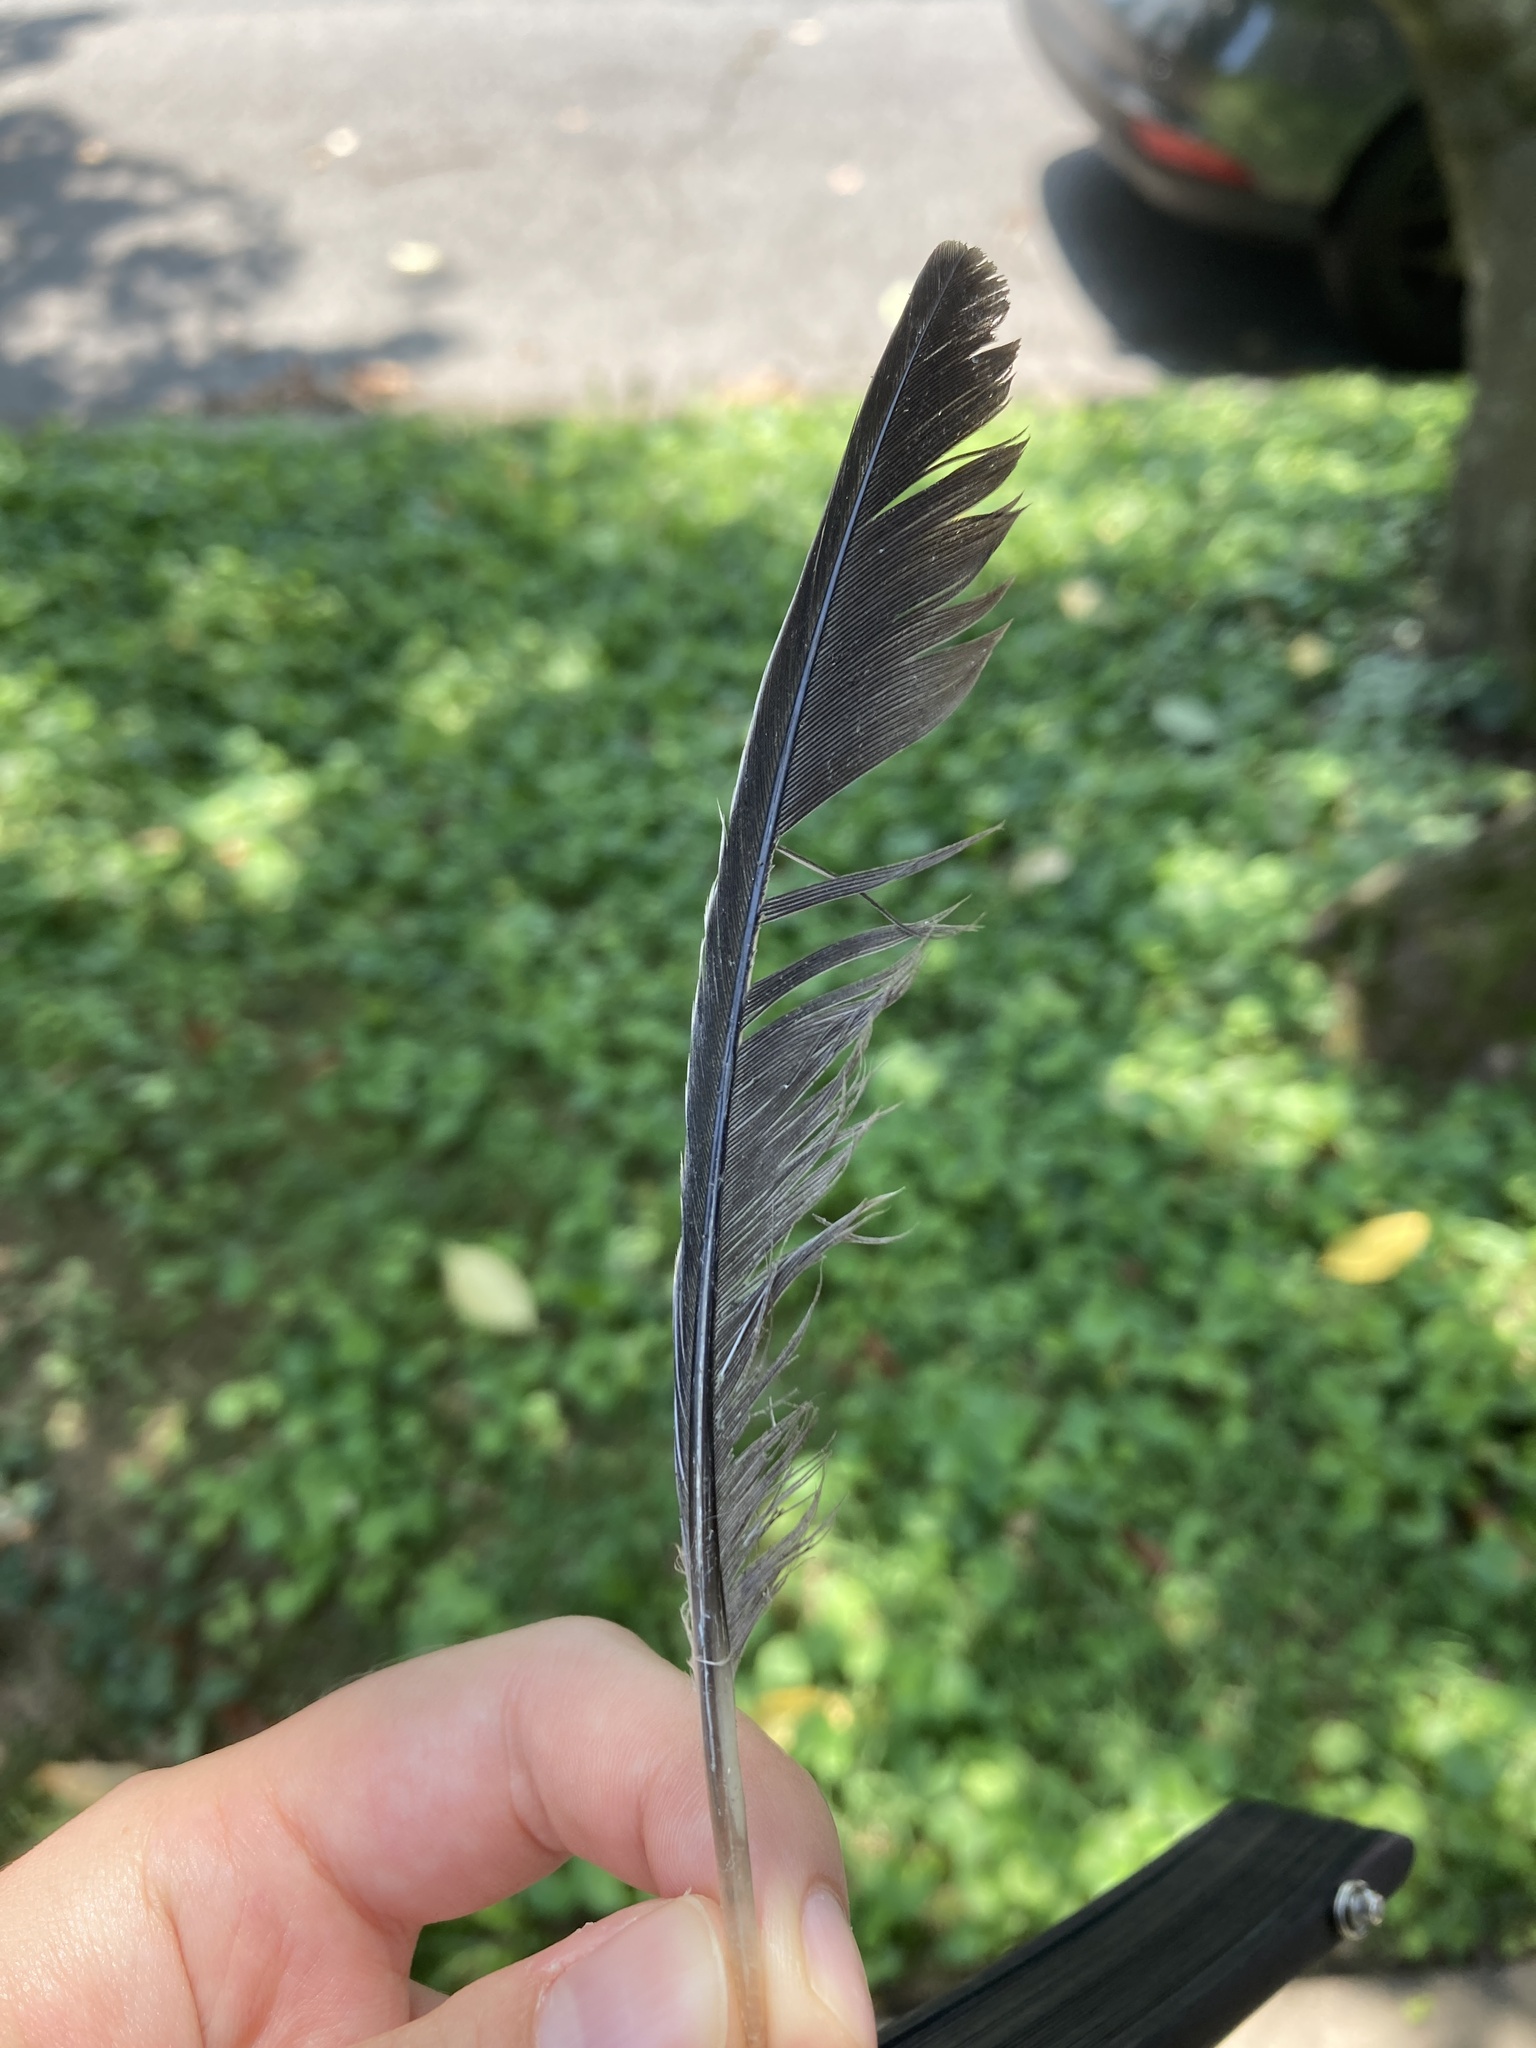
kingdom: Animalia
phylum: Chordata
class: Aves
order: Columbiformes
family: Columbidae
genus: Zenaida
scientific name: Zenaida macroura
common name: Mourning dove
